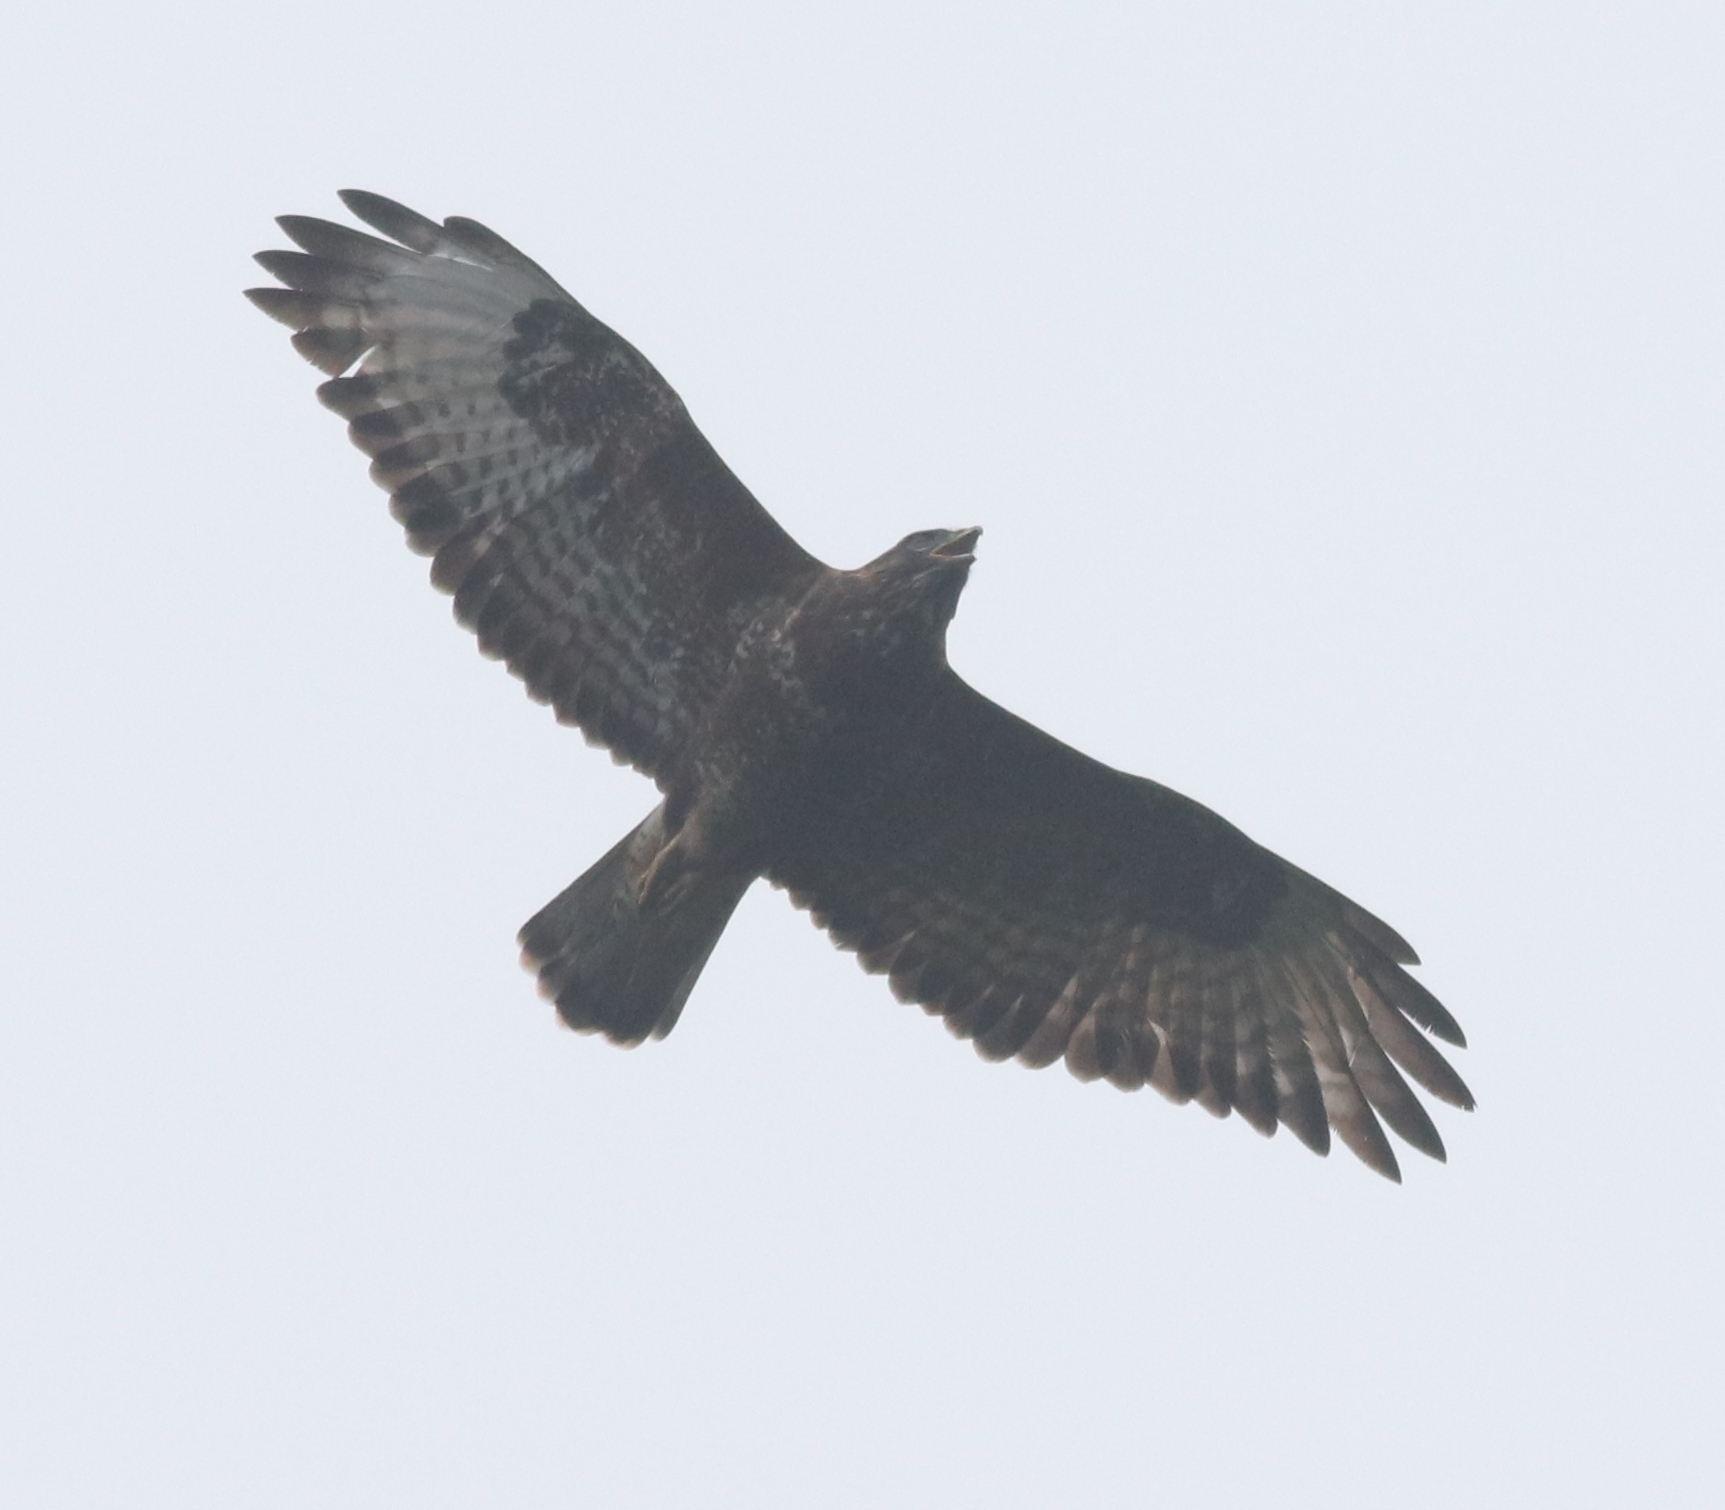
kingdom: Animalia
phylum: Chordata
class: Aves
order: Accipitriformes
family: Accipitridae
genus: Buteo
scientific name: Buteo buteo
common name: Common buzzard
